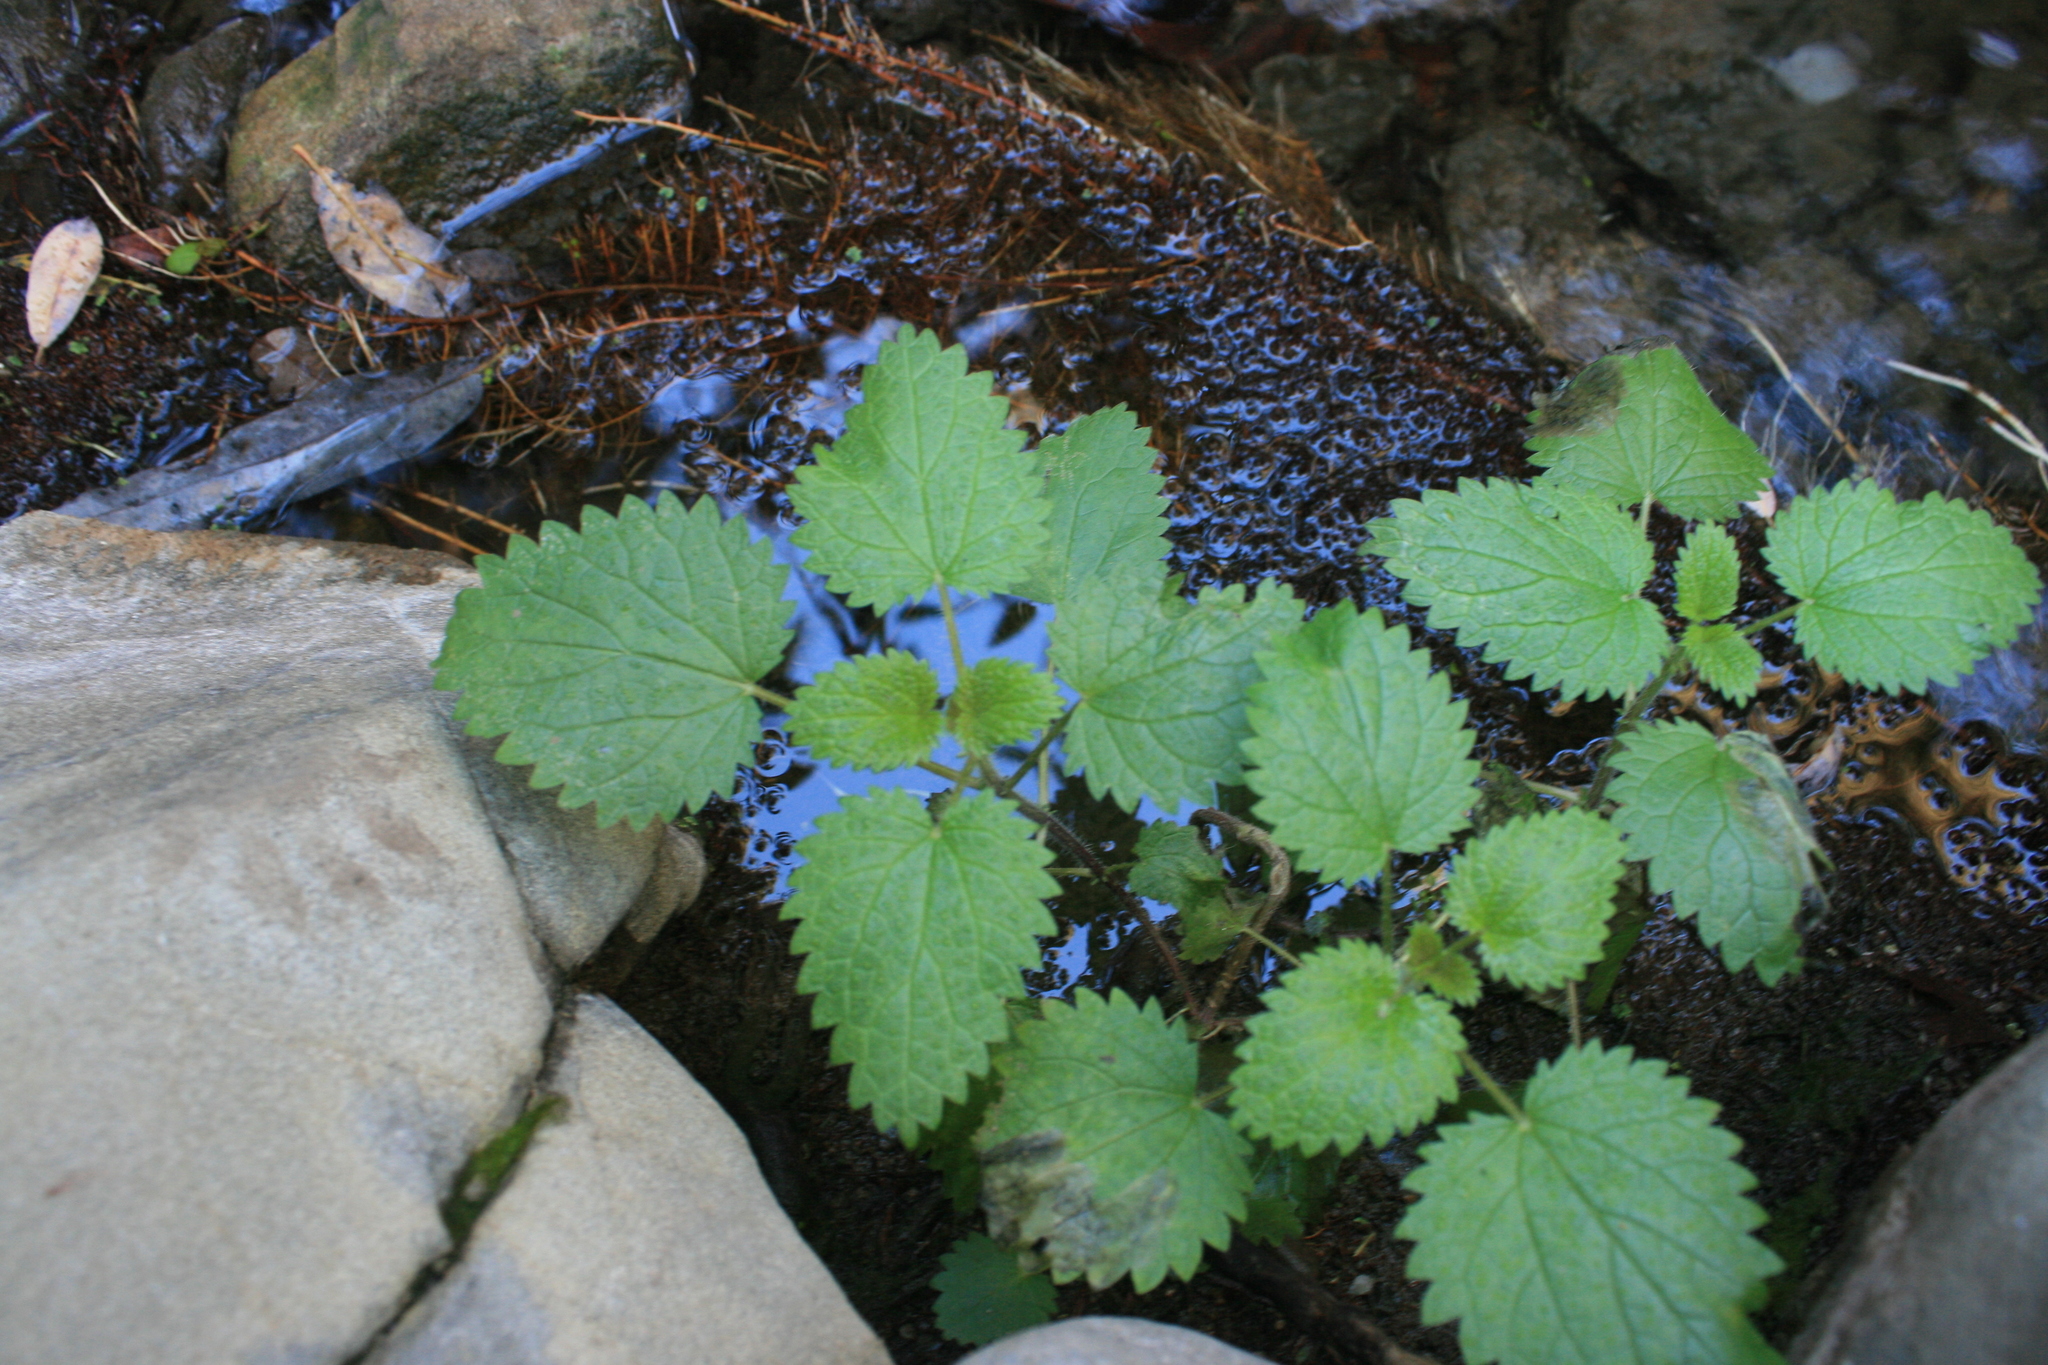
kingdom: Plantae
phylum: Tracheophyta
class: Magnoliopsida
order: Rosales
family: Urticaceae
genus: Urtica
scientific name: Urtica dioica
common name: Common nettle
